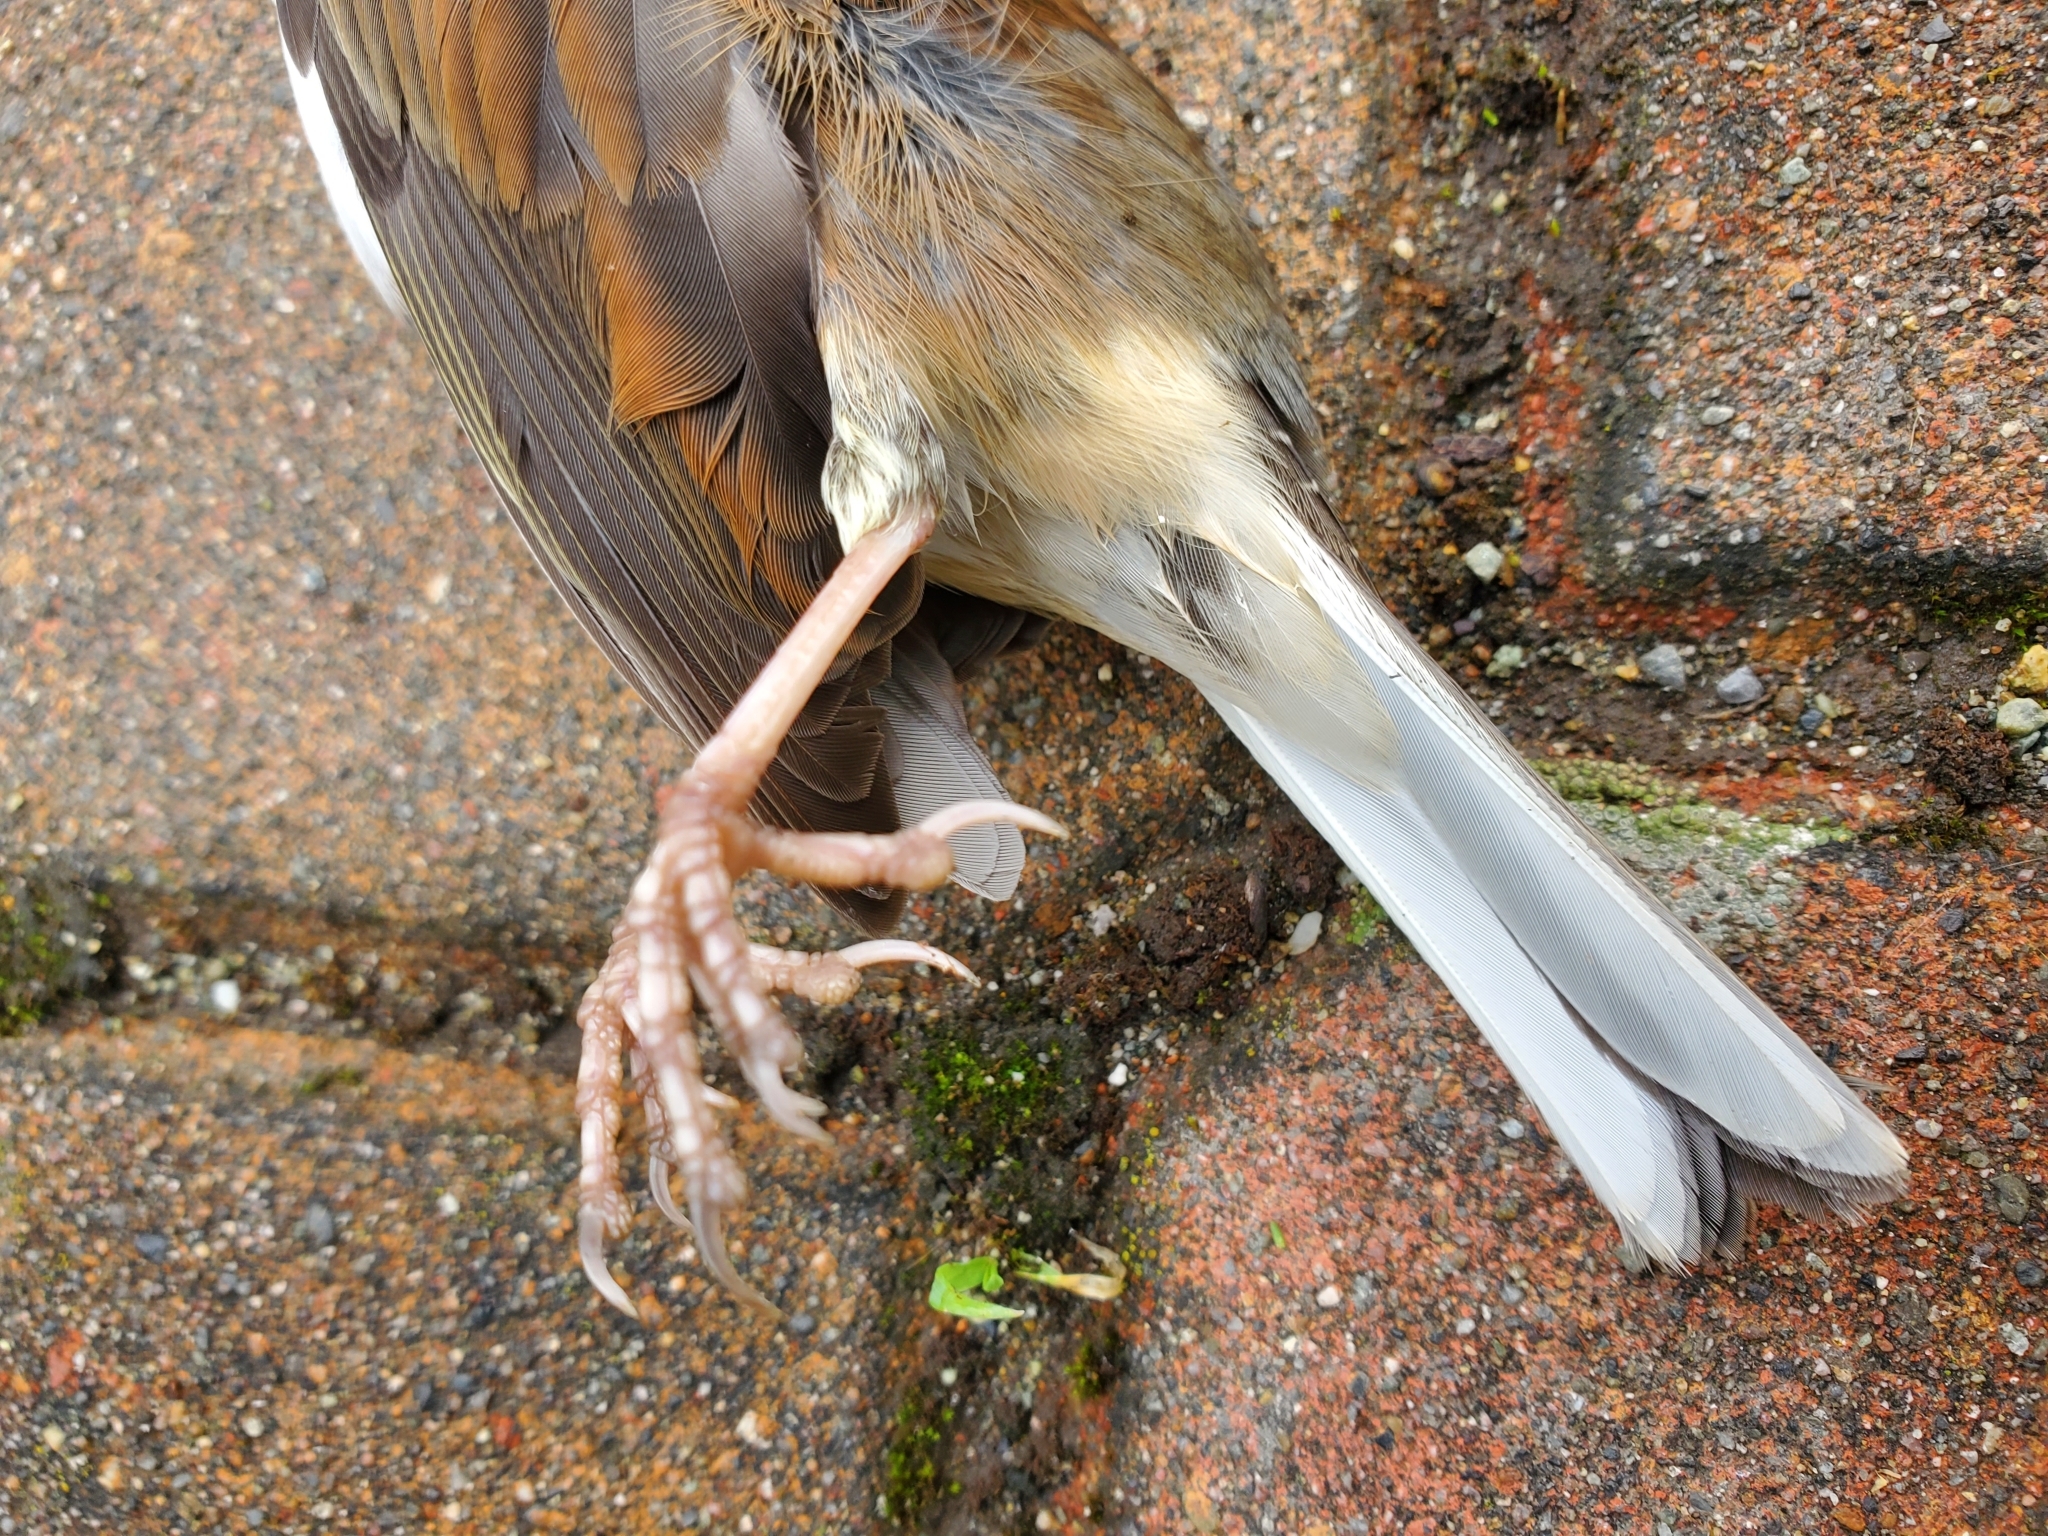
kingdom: Animalia
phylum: Chordata
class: Aves
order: Passeriformes
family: Passerellidae
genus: Junco
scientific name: Junco hyemalis
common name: Dark-eyed junco
